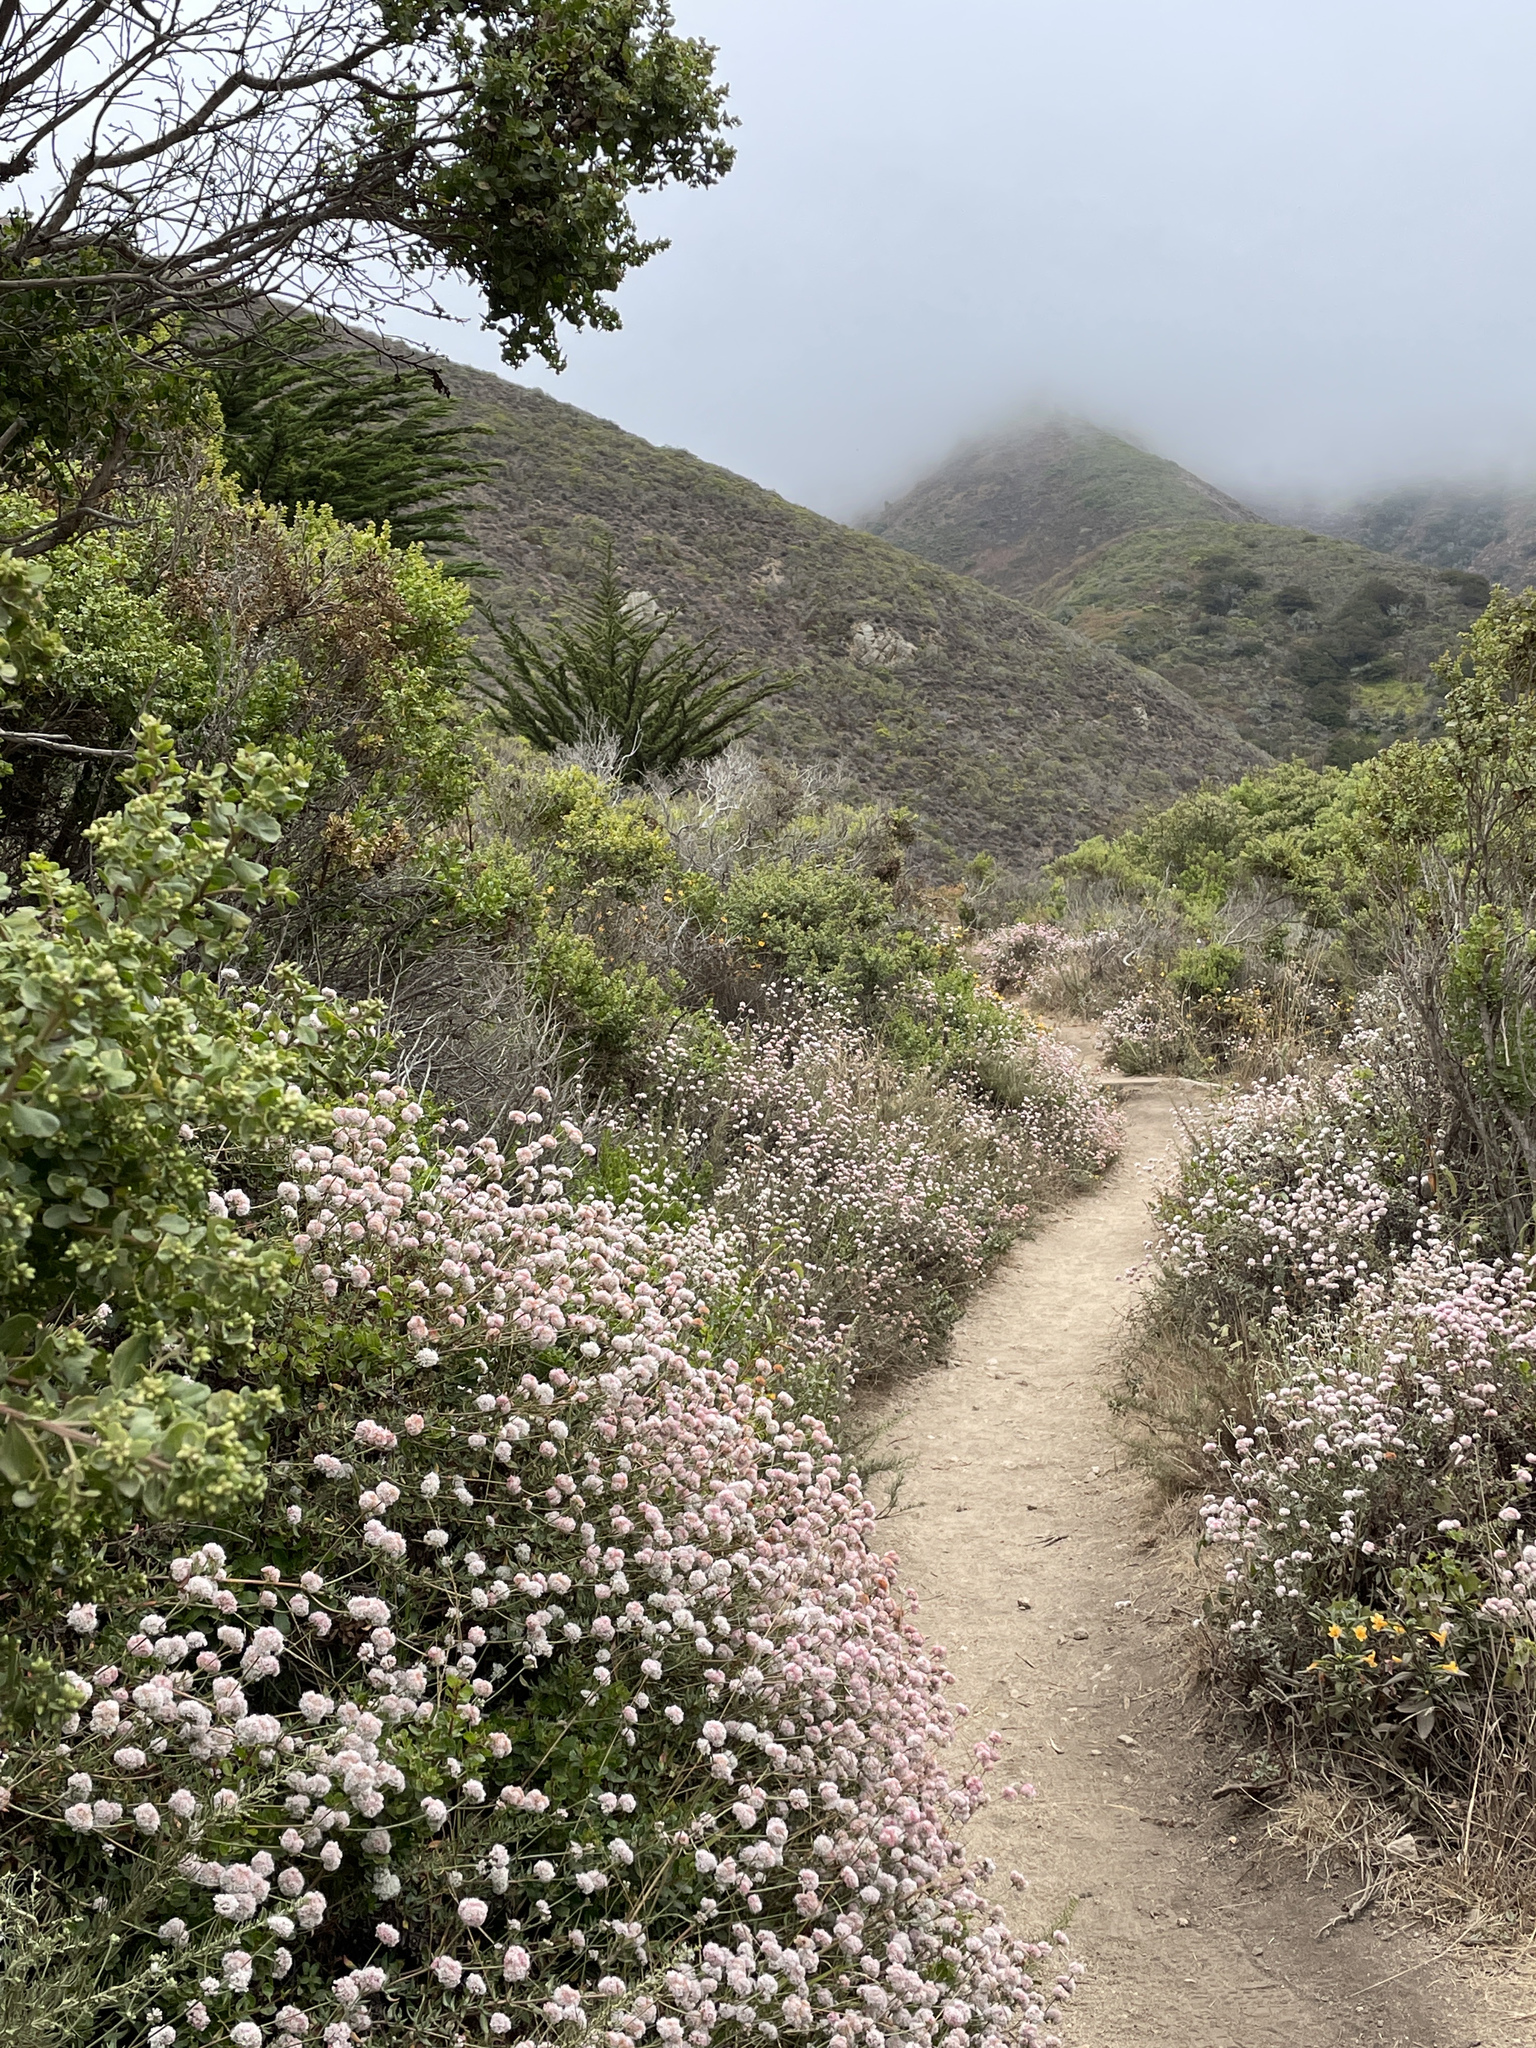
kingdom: Plantae
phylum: Tracheophyta
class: Magnoliopsida
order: Caryophyllales
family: Polygonaceae
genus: Eriogonum
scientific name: Eriogonum parvifolium
